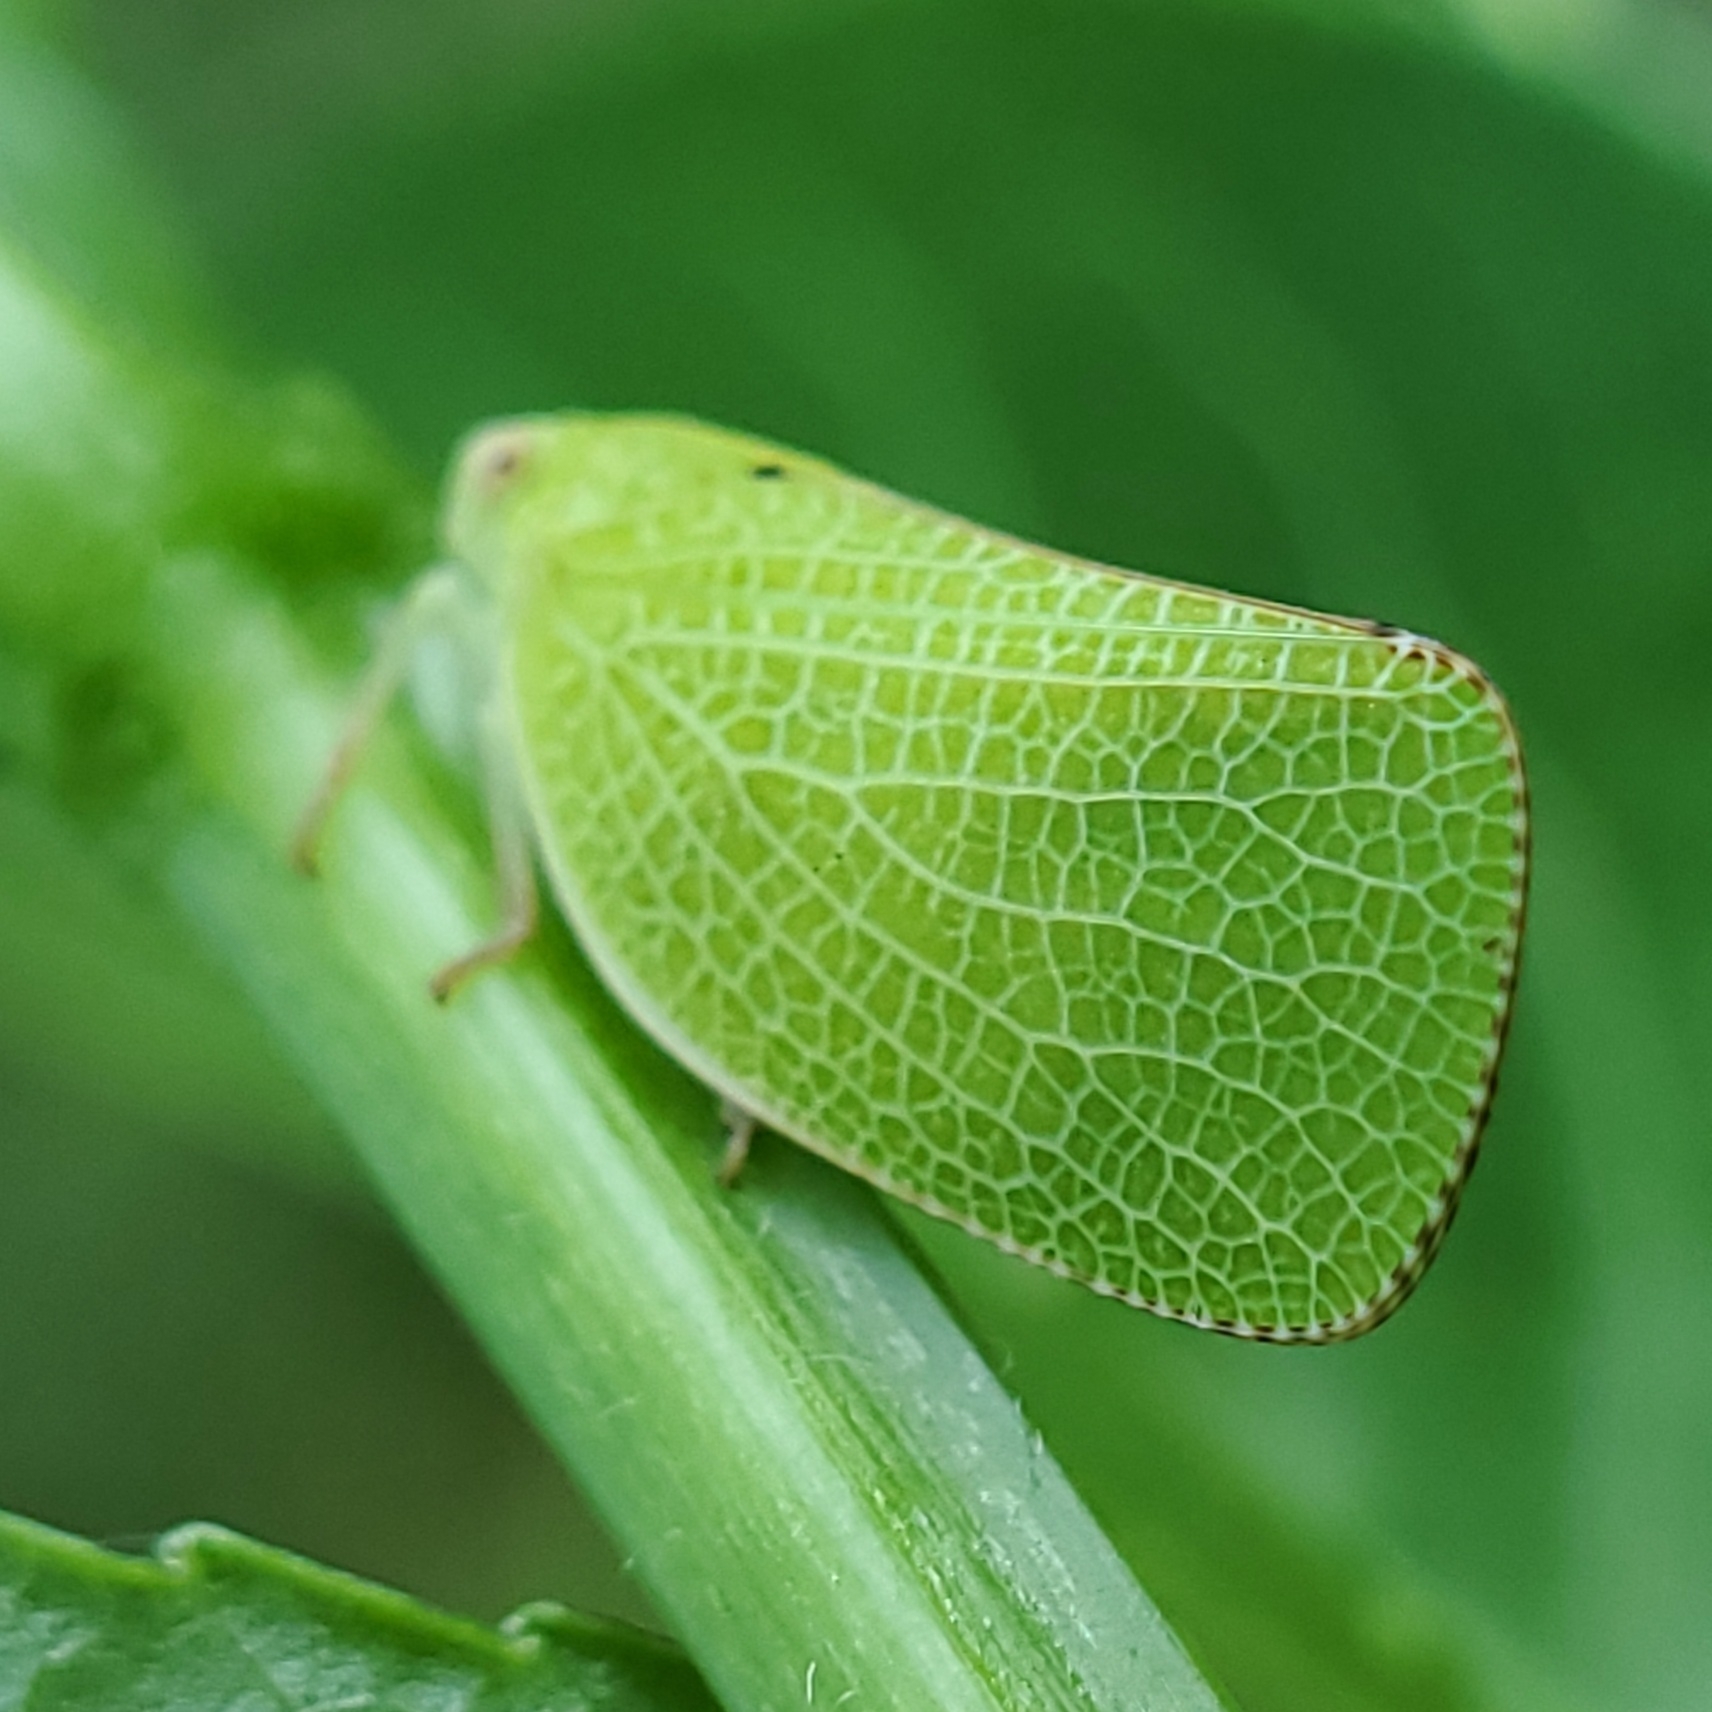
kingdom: Animalia
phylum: Arthropoda
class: Insecta
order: Hemiptera
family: Acanaloniidae
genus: Acanalonia
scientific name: Acanalonia conica
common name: Green cone-headed planthopper
